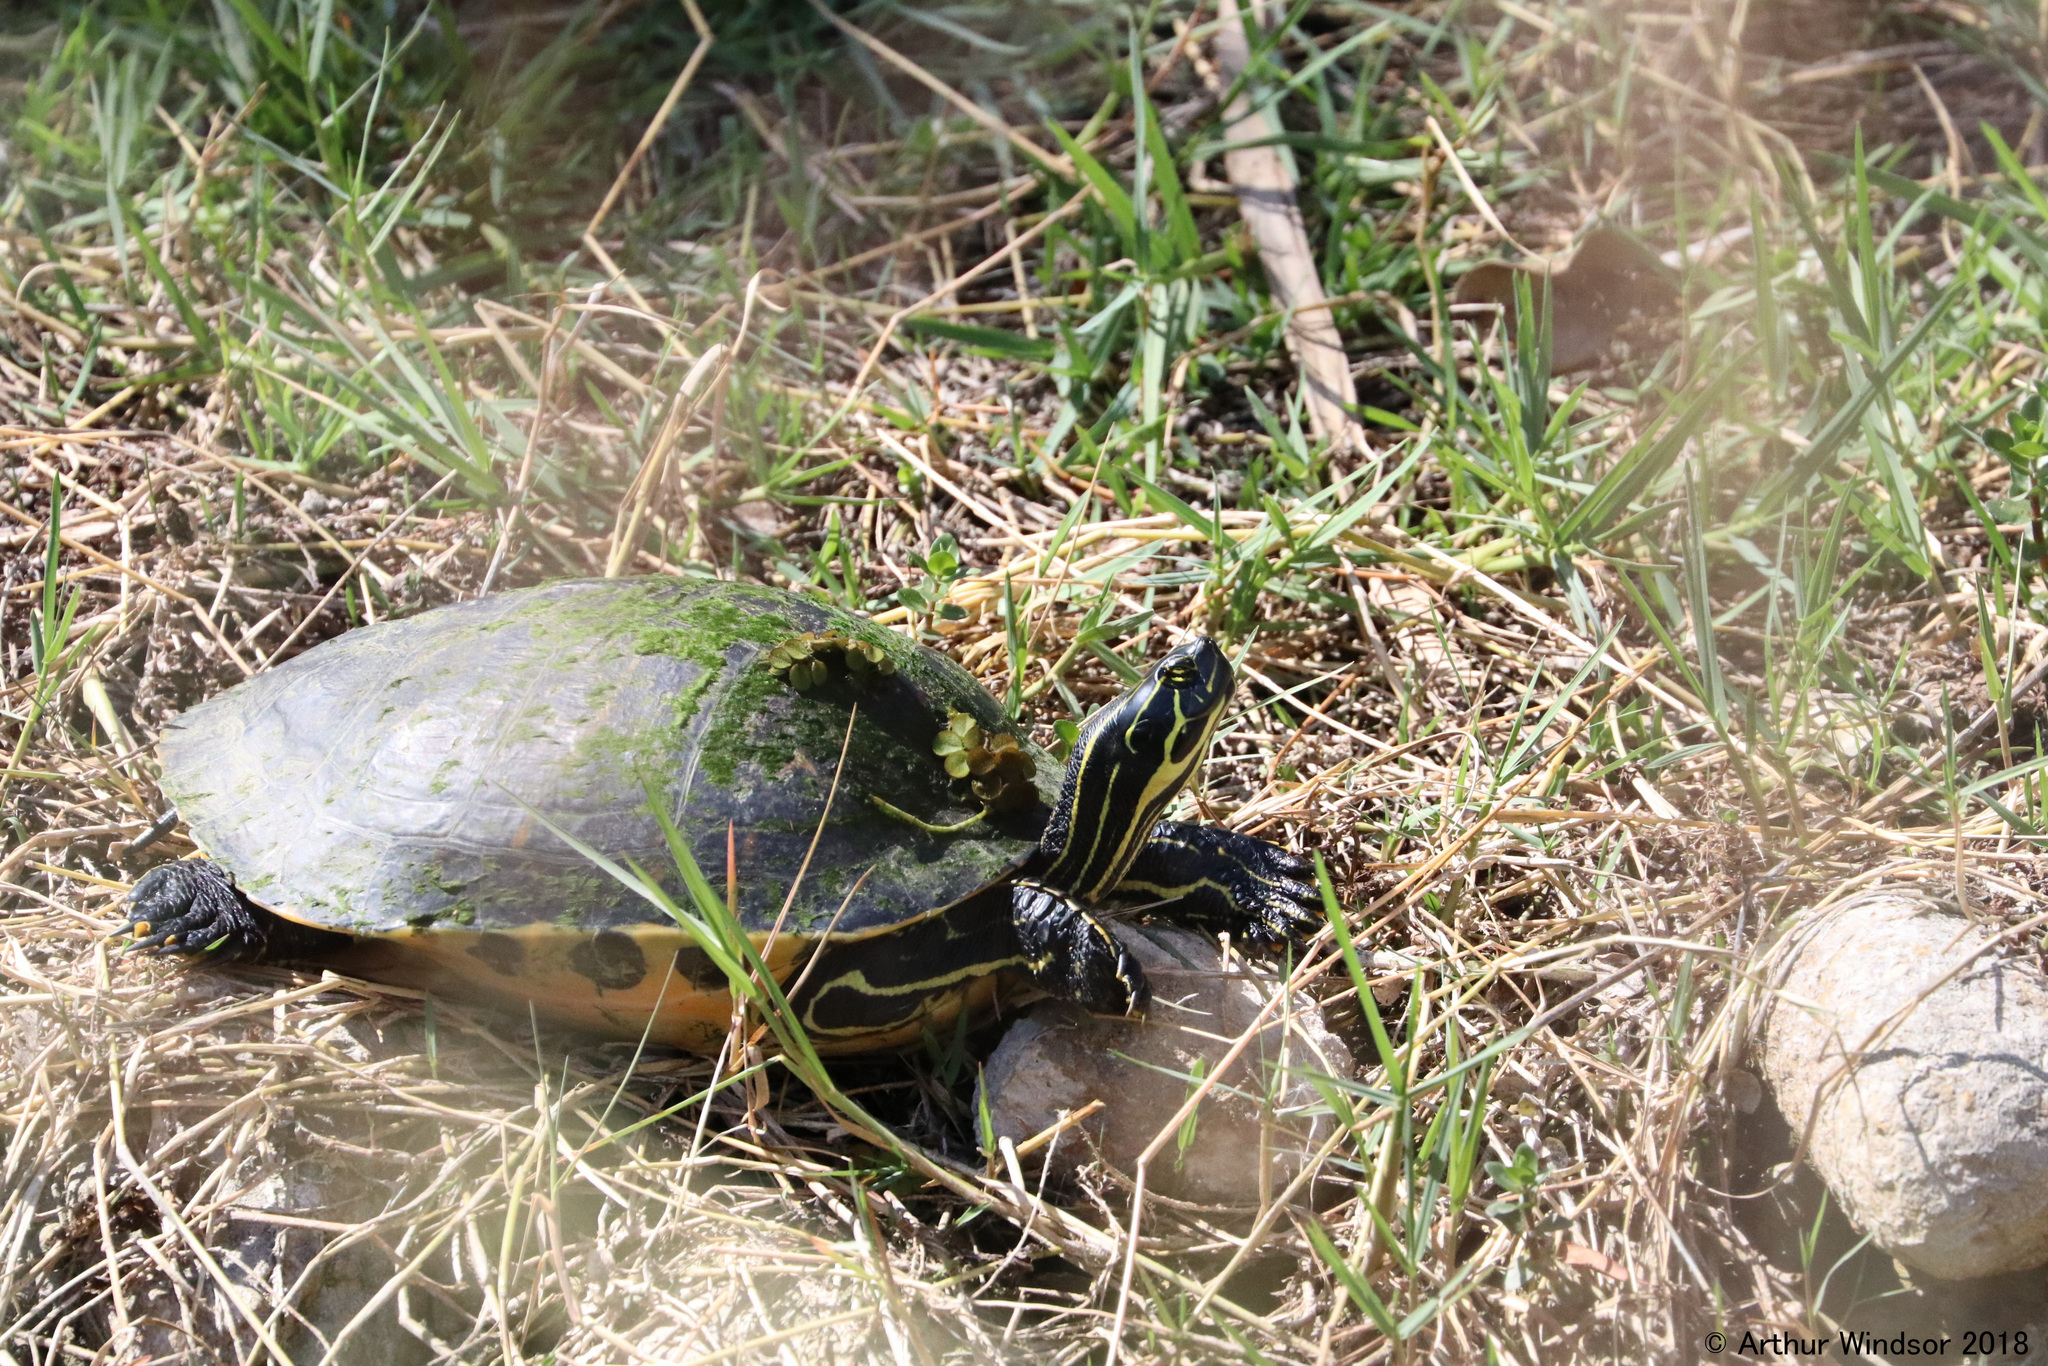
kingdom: Animalia
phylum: Chordata
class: Testudines
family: Emydidae
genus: Pseudemys
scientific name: Pseudemys peninsularis
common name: Peninsula cooter
